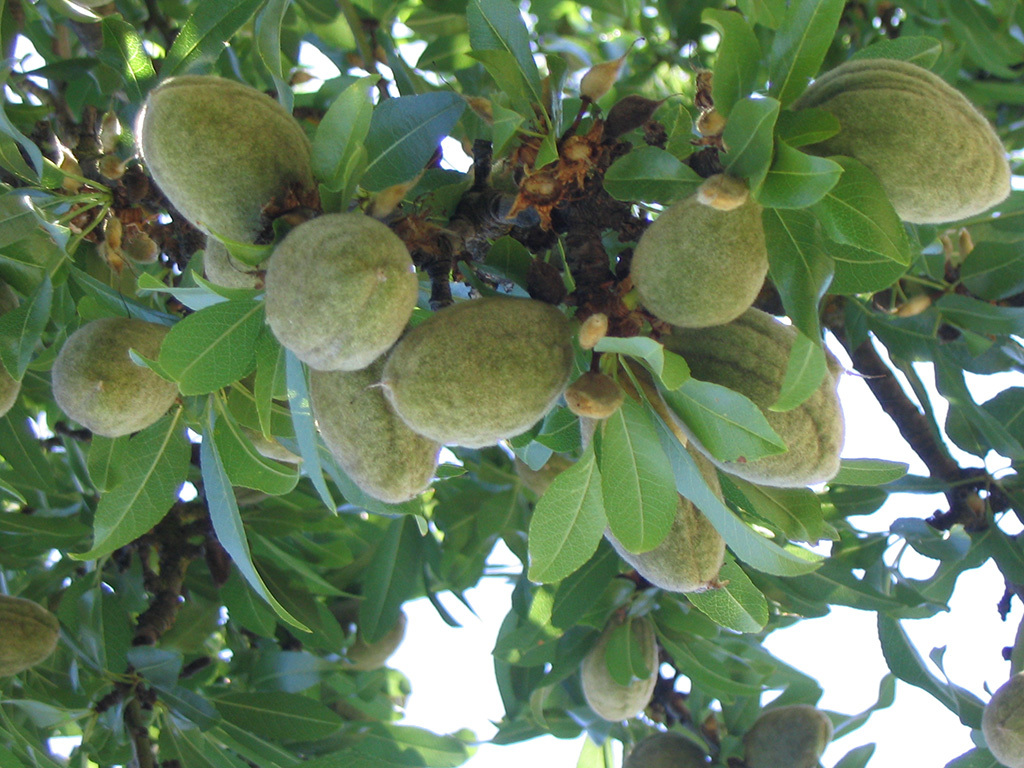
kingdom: Plantae
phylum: Tracheophyta
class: Magnoliopsida
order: Rosales
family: Rosaceae
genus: Prunus
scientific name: Prunus amygdalus
